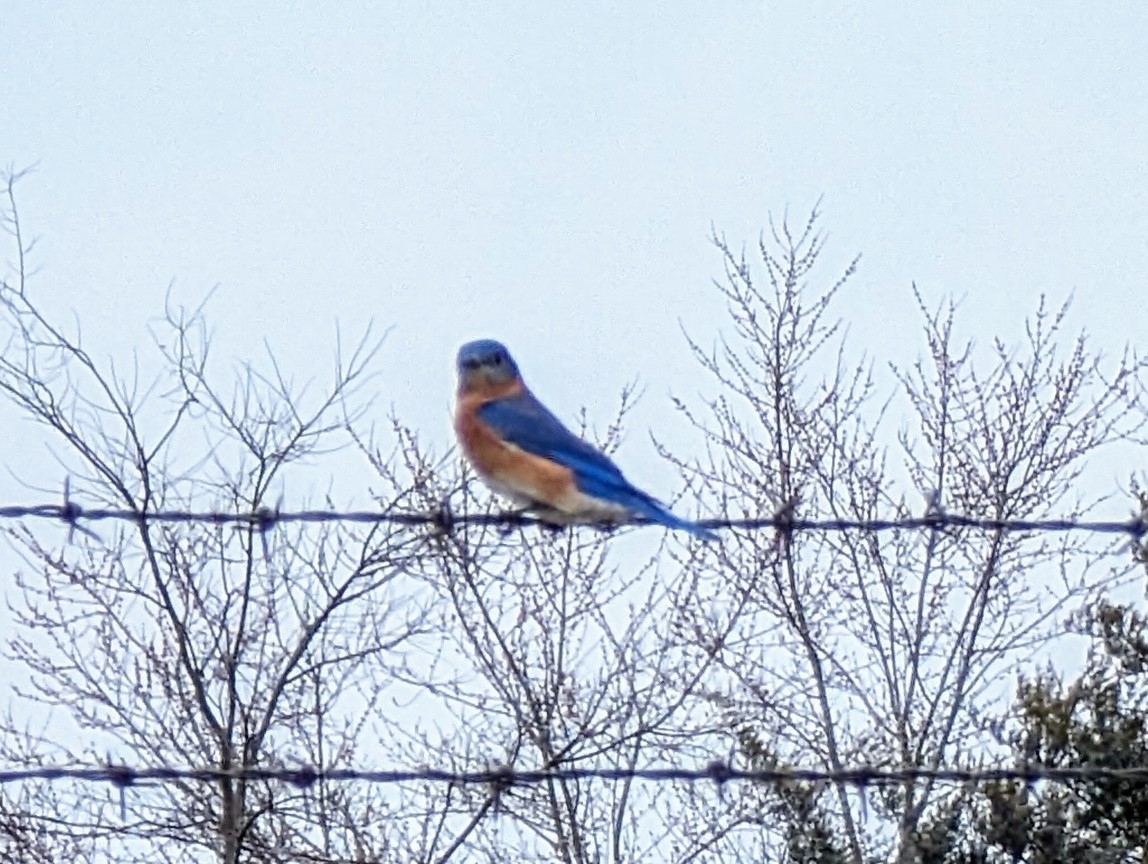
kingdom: Animalia
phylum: Chordata
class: Aves
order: Passeriformes
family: Turdidae
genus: Sialia
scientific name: Sialia sialis
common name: Eastern bluebird
